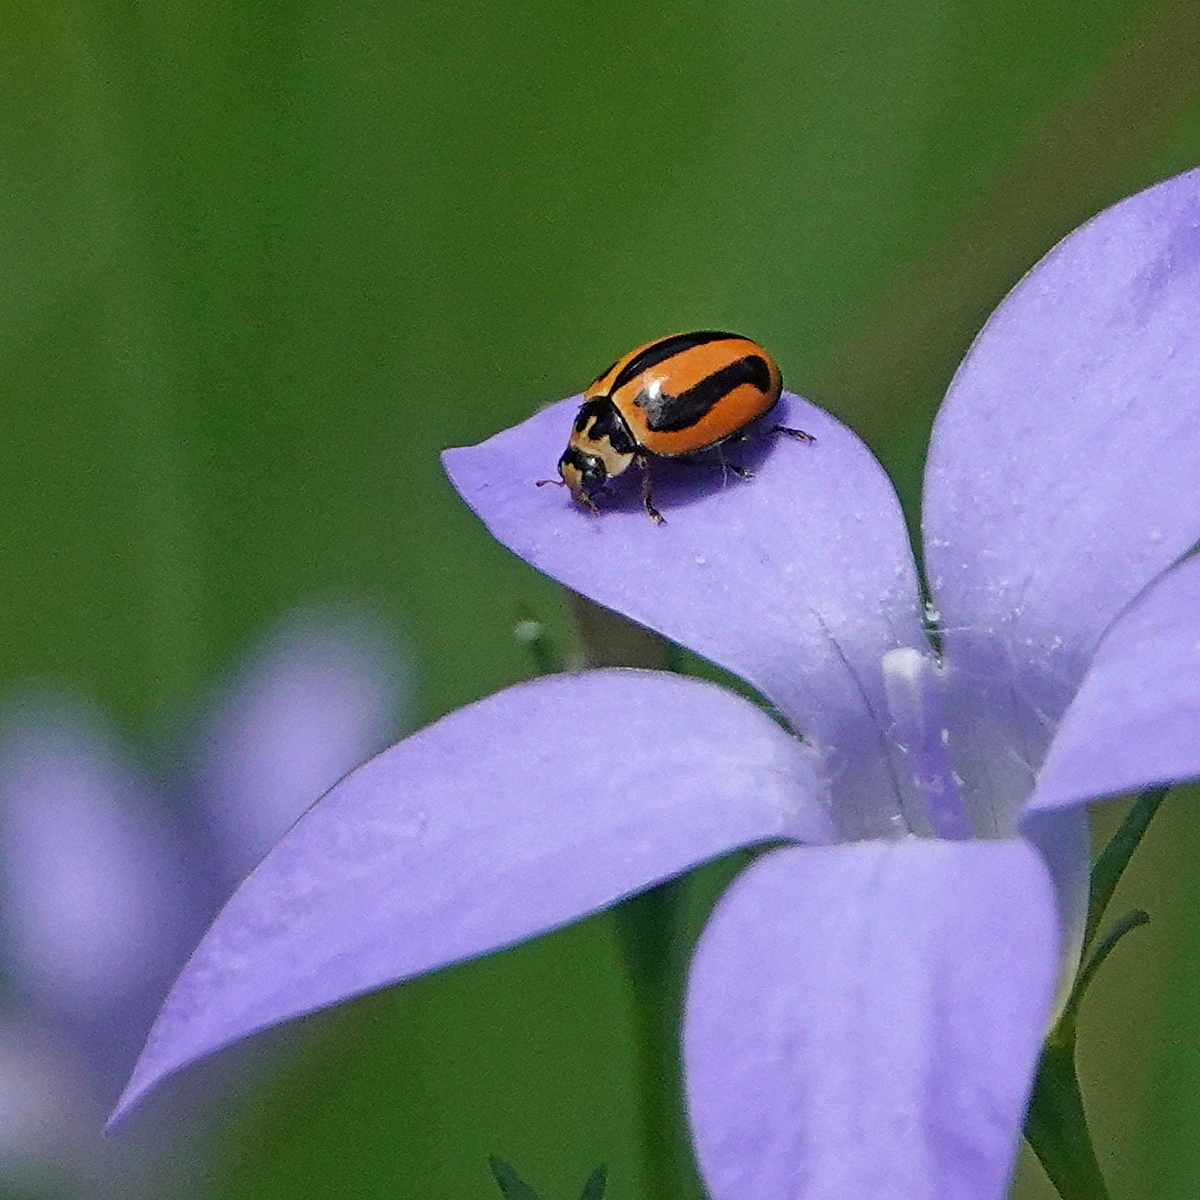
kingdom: Animalia
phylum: Arthropoda
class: Insecta
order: Coleoptera
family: Coccinellidae
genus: Micraspis
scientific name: Micraspis frenata
